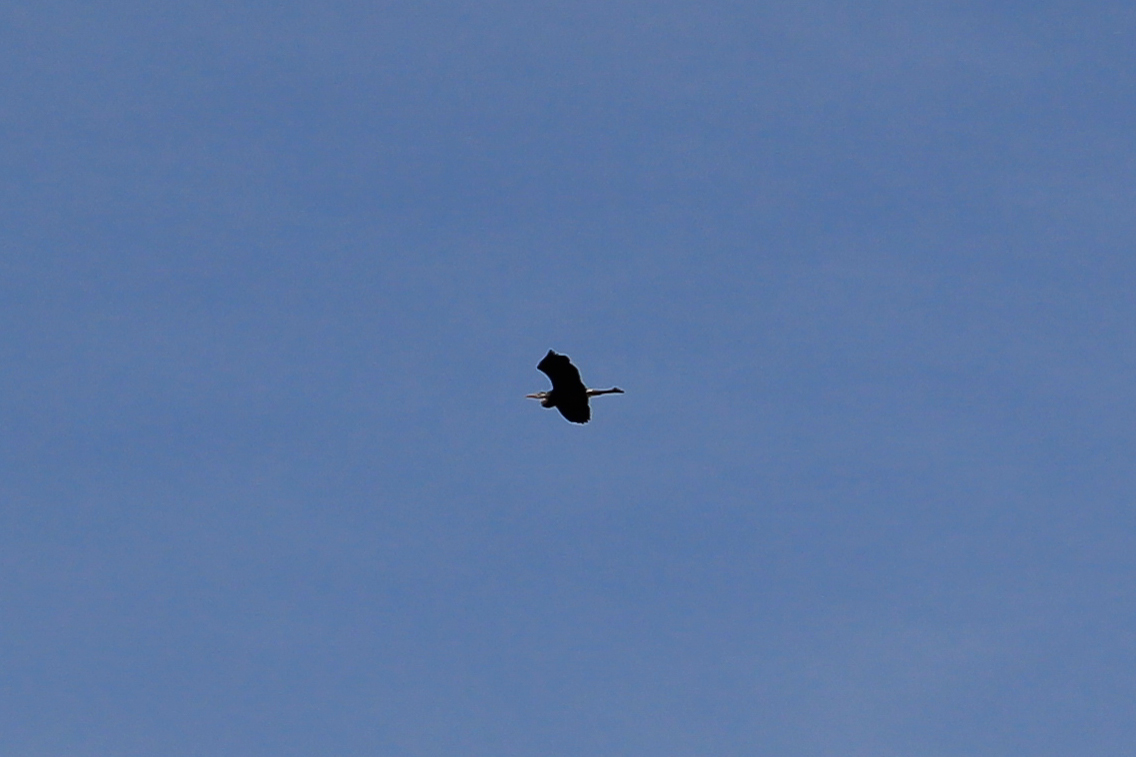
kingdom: Animalia
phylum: Chordata
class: Aves
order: Pelecaniformes
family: Ardeidae
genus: Ardea
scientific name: Ardea herodias
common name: Great blue heron
